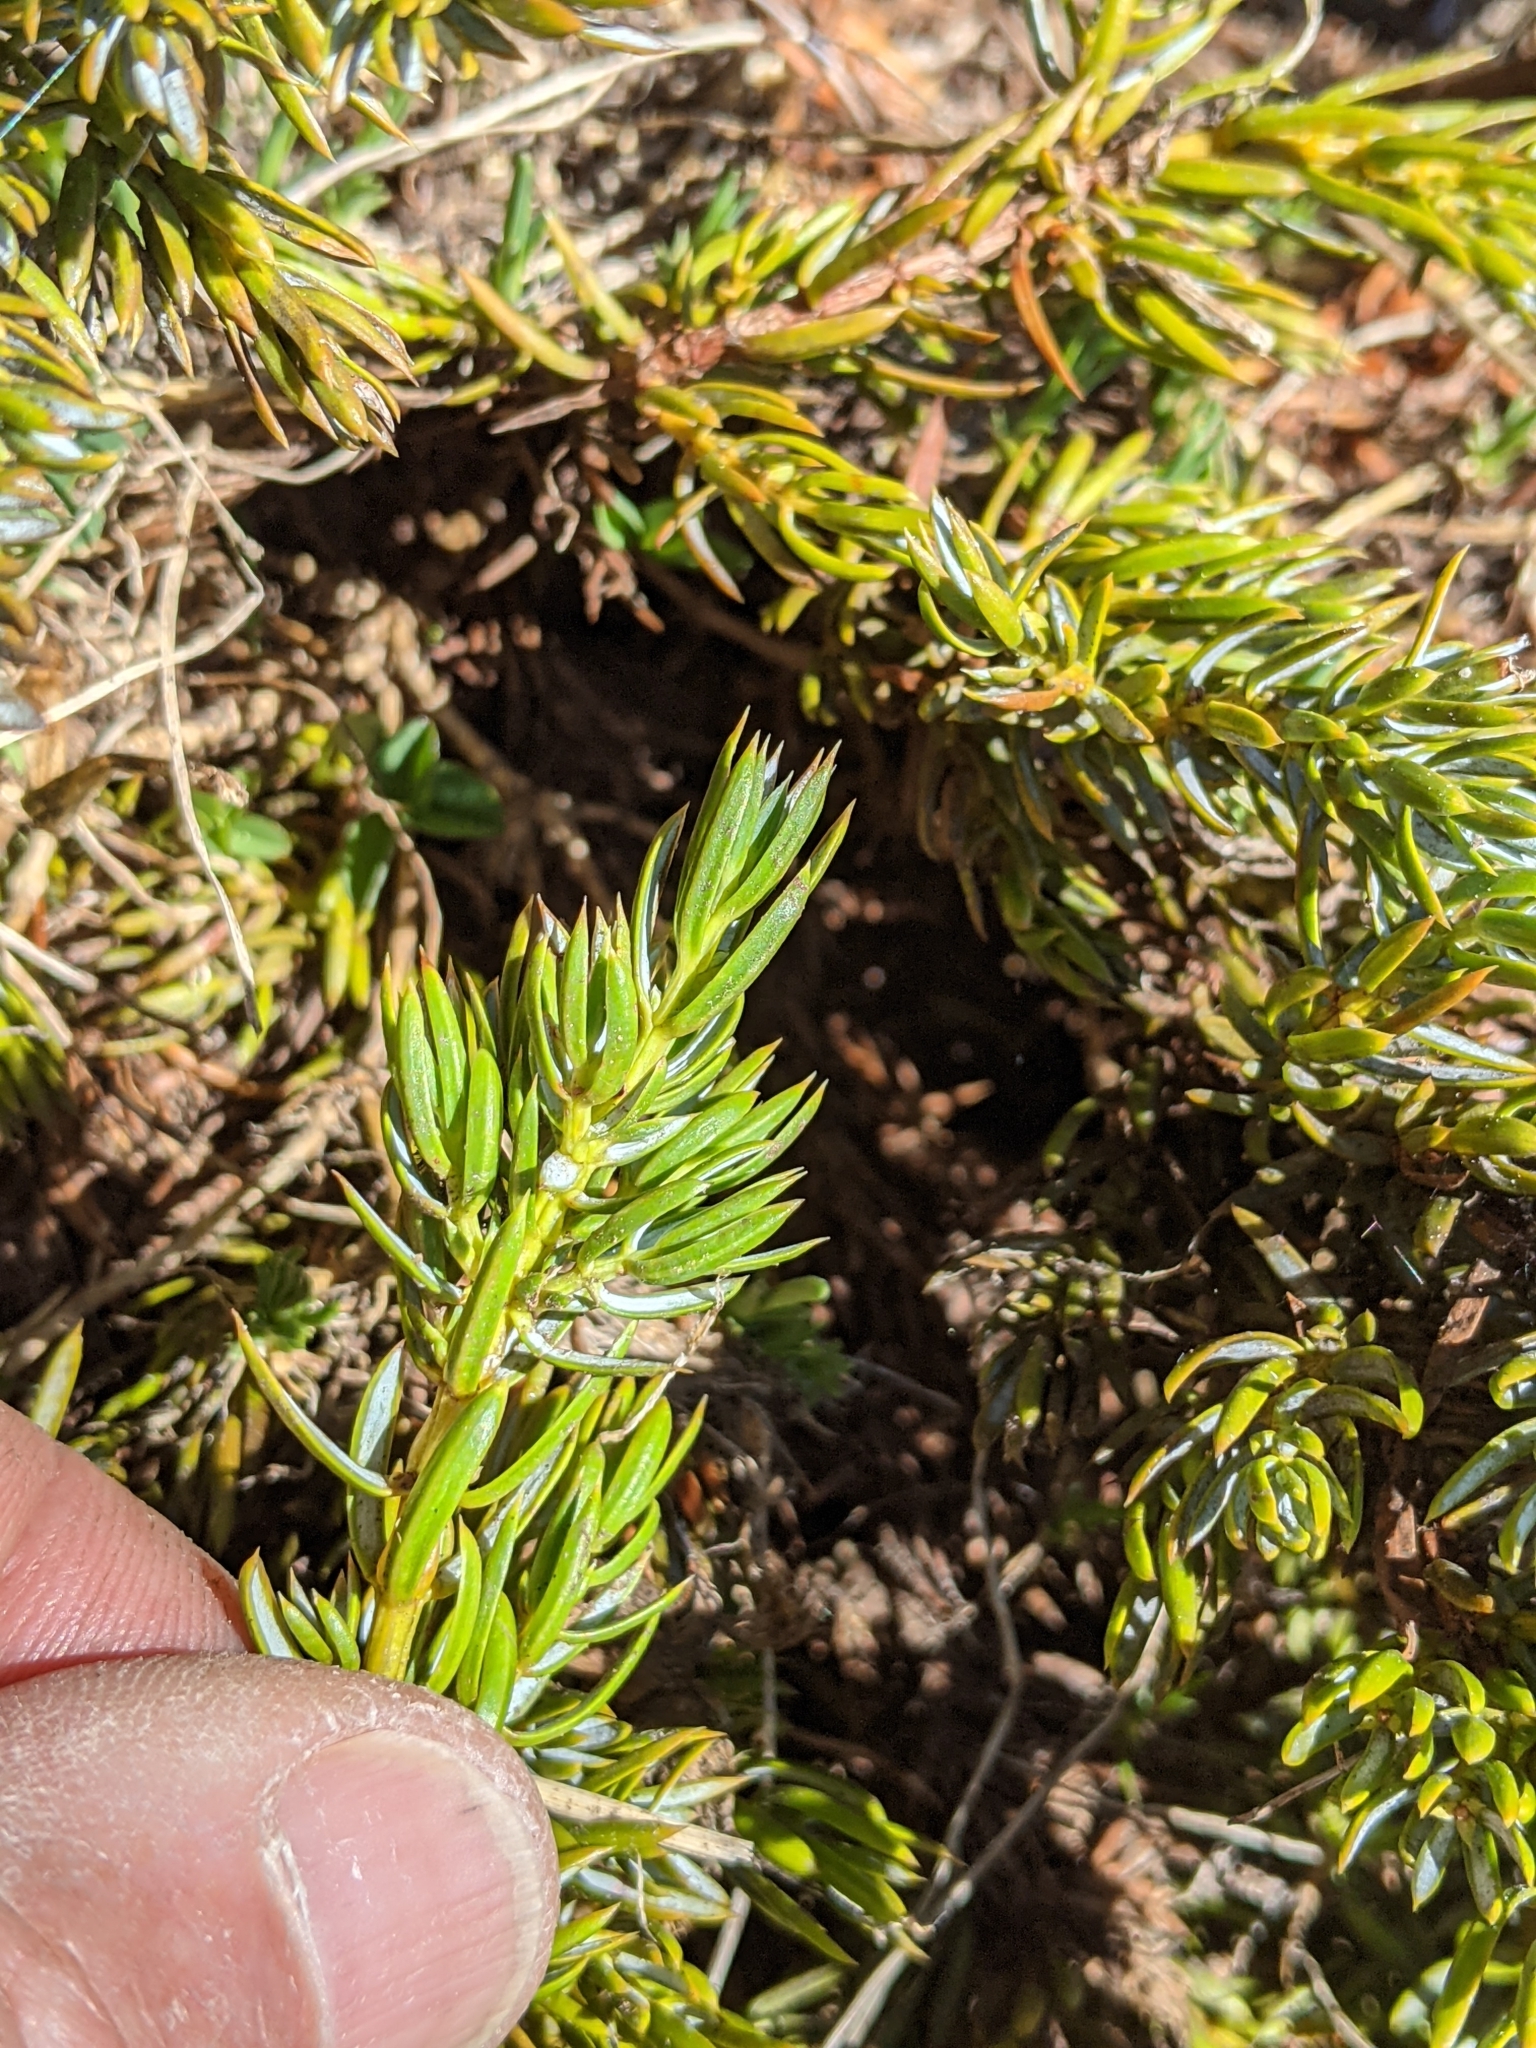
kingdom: Plantae
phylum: Tracheophyta
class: Pinopsida
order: Pinales
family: Cupressaceae
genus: Juniperus
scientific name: Juniperus communis
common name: Common juniper
